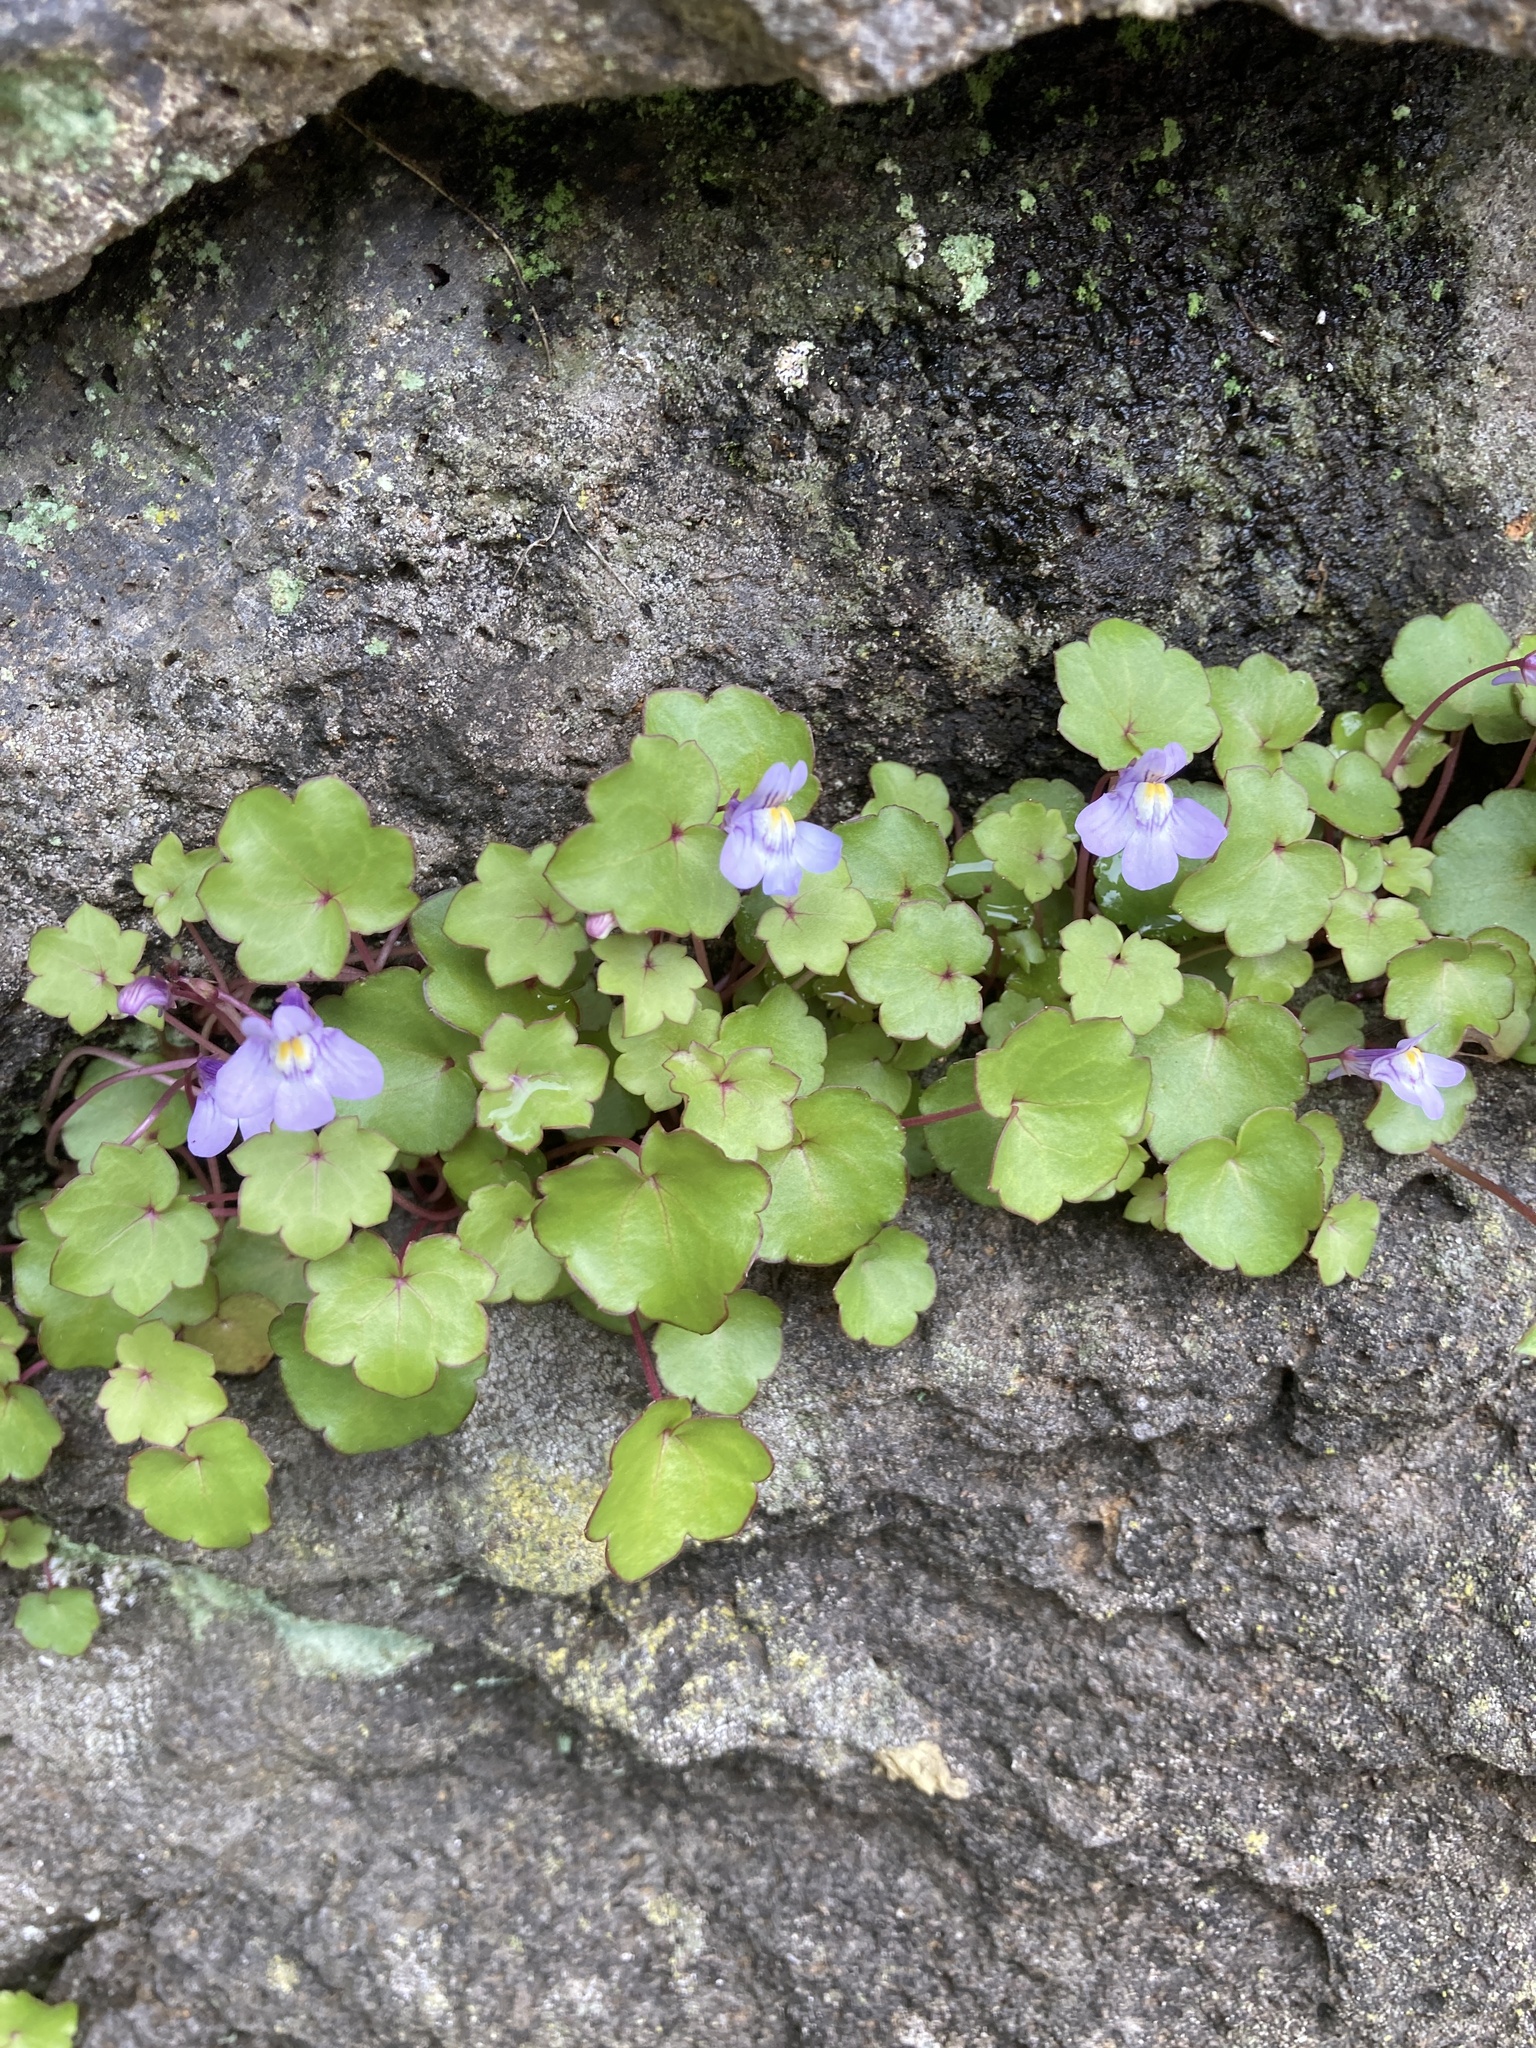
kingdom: Plantae
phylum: Tracheophyta
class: Magnoliopsida
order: Lamiales
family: Plantaginaceae
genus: Cymbalaria
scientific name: Cymbalaria muralis
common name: Ivy-leaved toadflax
